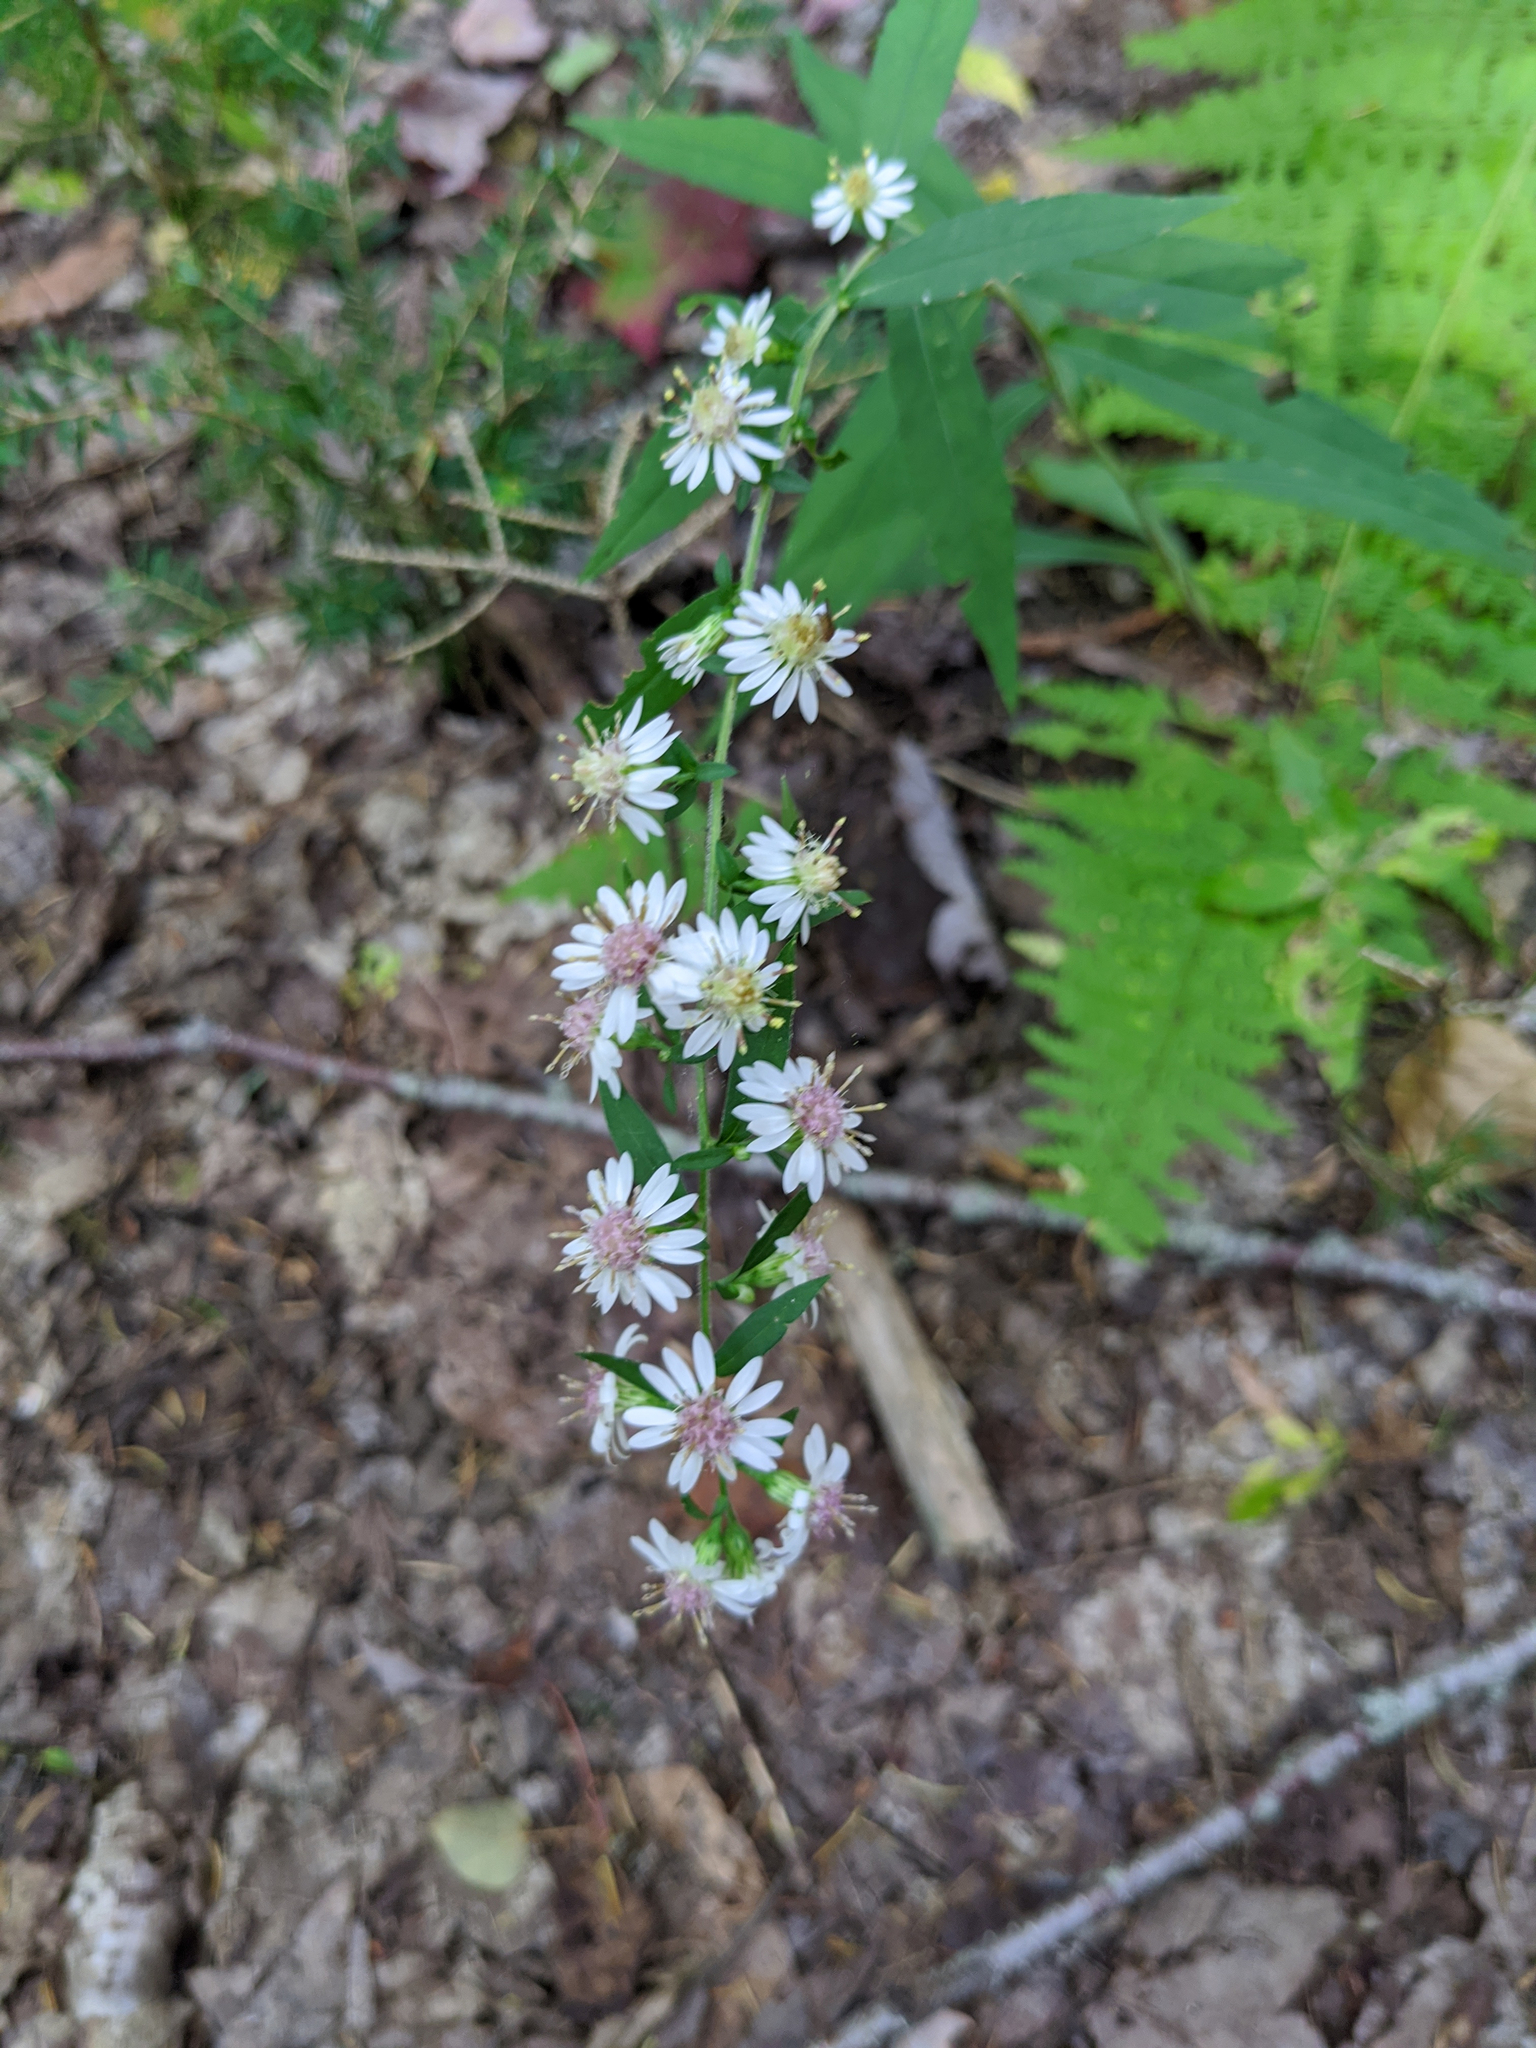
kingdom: Plantae
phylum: Tracheophyta
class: Magnoliopsida
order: Asterales
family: Asteraceae
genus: Symphyotrichum
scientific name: Symphyotrichum lateriflorum
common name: Calico aster
